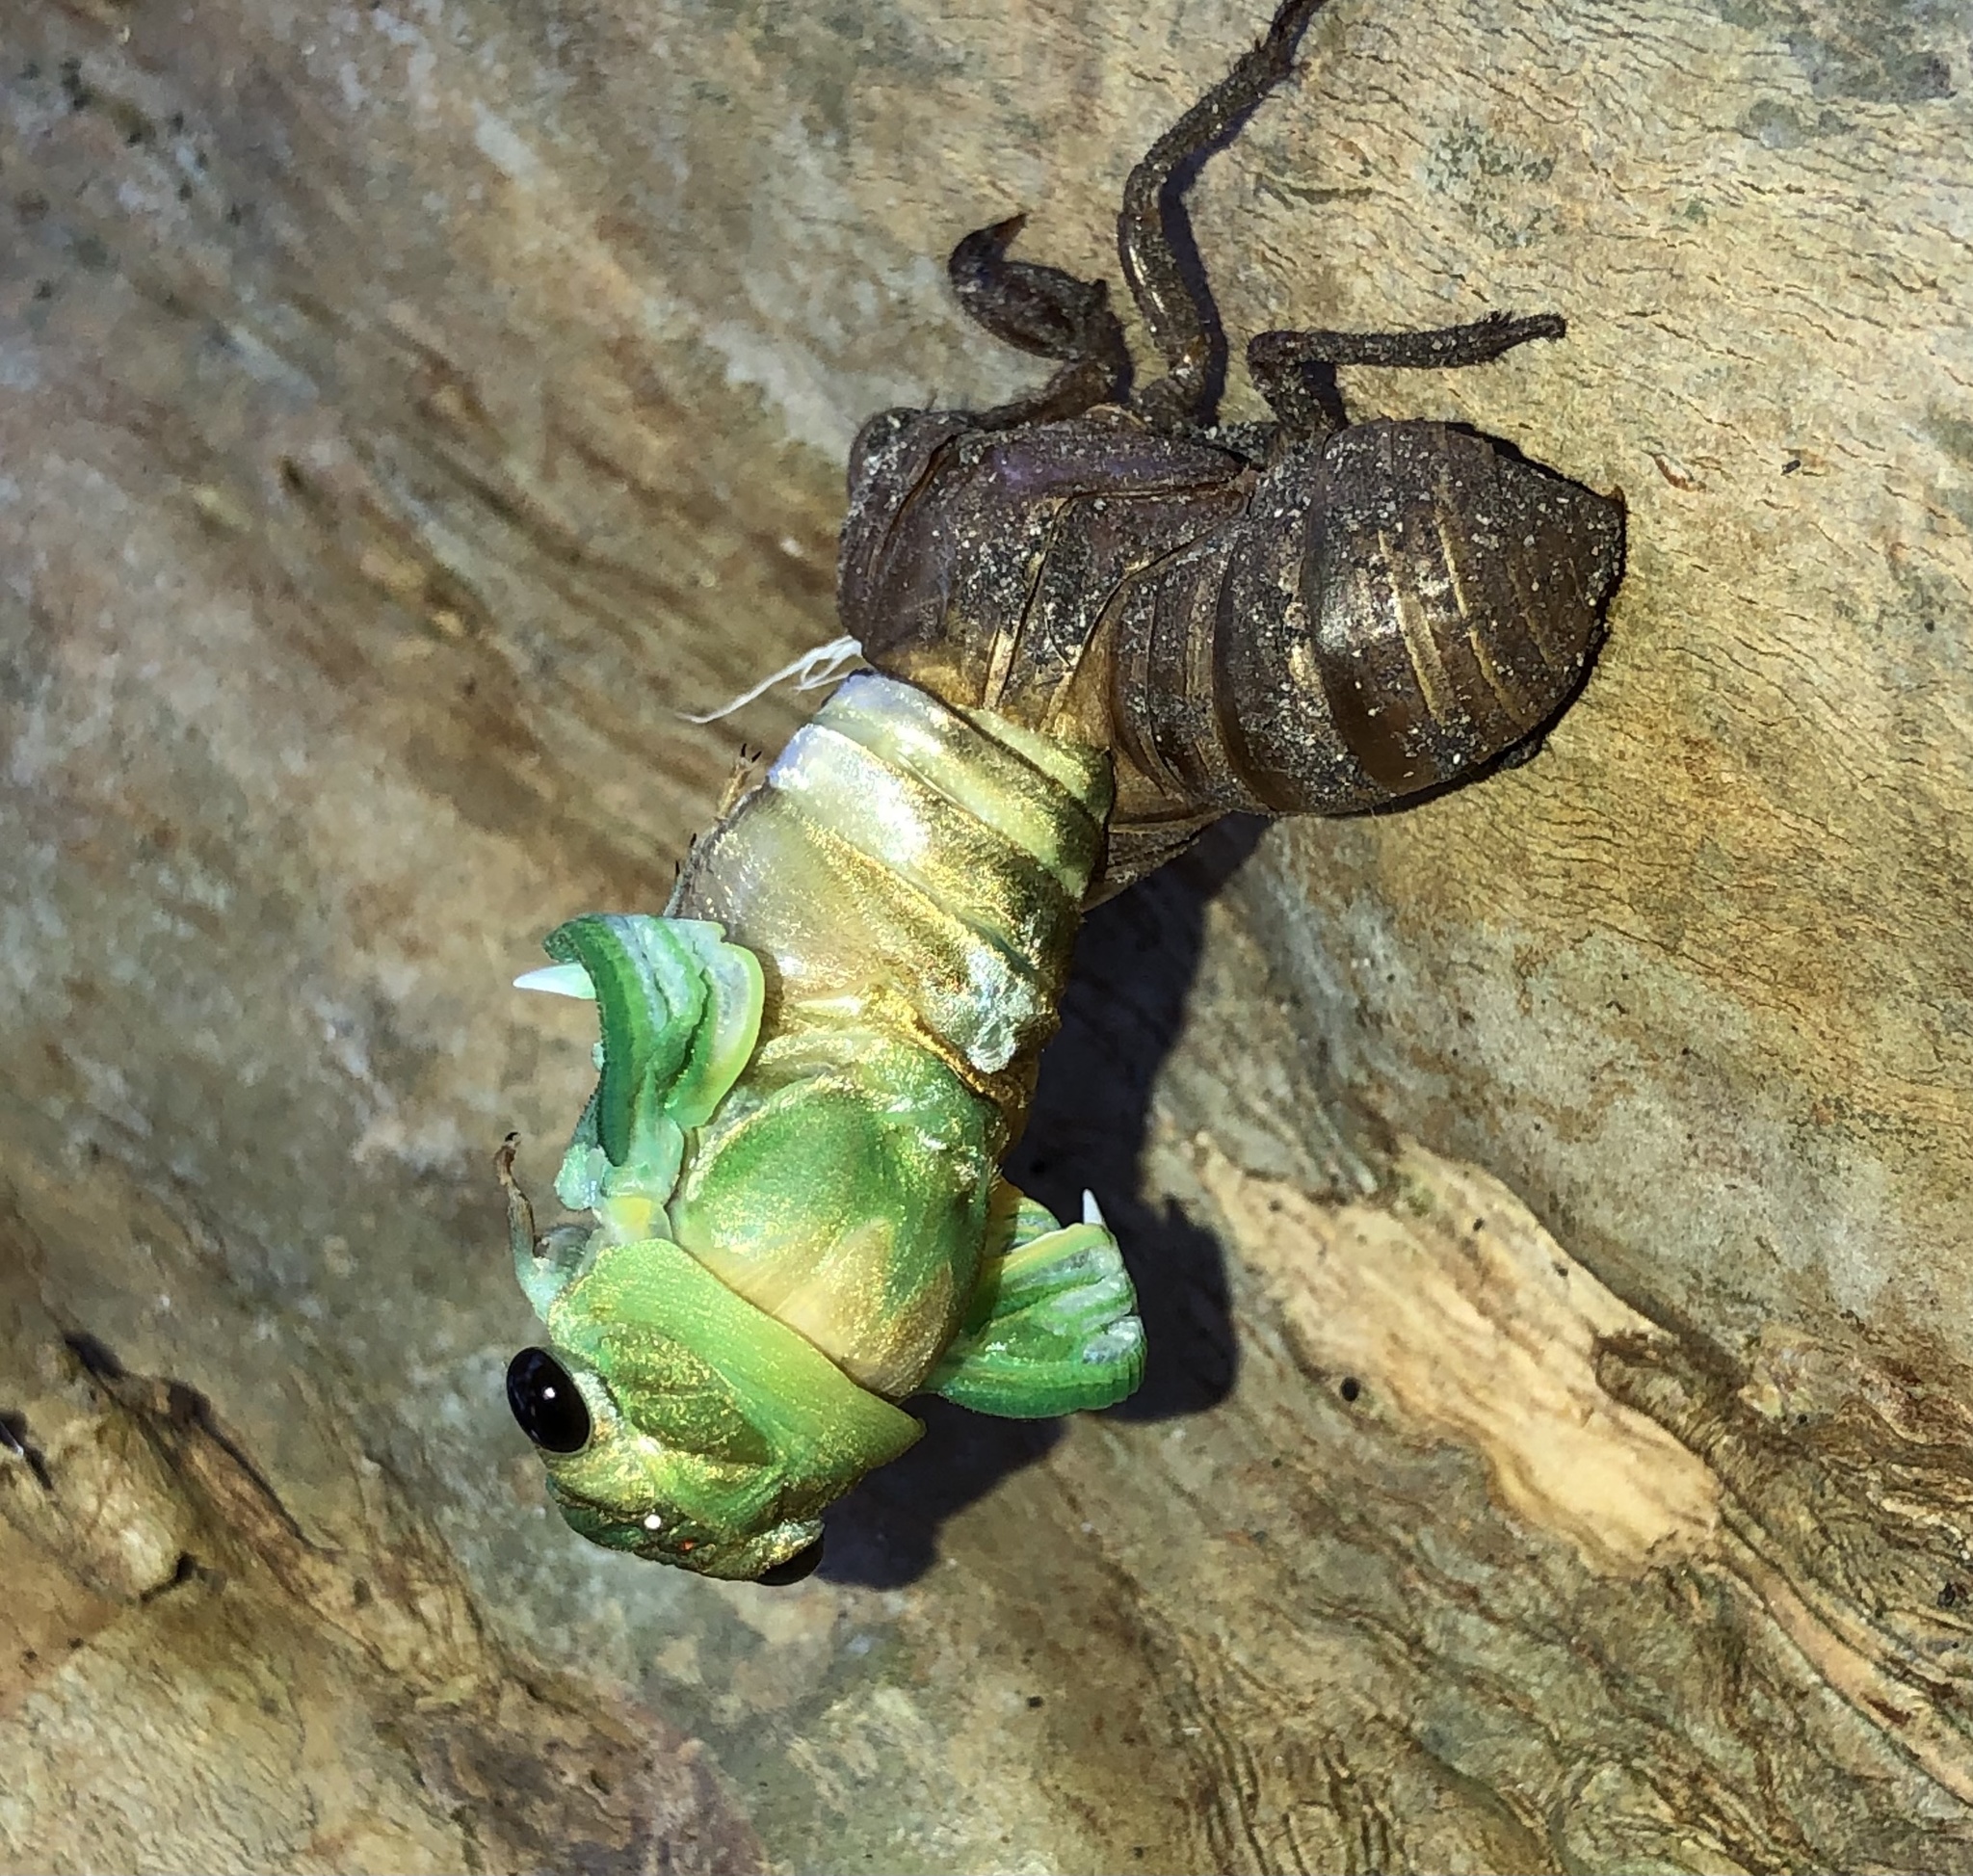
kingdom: Animalia
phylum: Arthropoda
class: Insecta
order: Hemiptera
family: Cicadidae
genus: Neotibicen
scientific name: Neotibicen superbus
